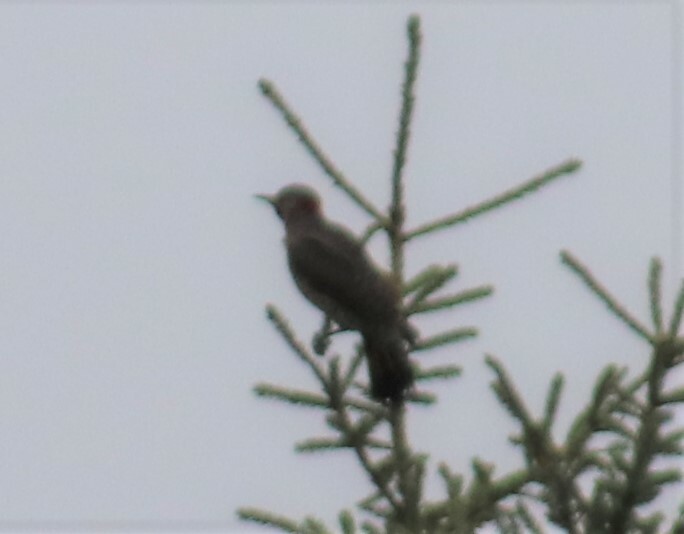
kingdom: Animalia
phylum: Chordata
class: Aves
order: Piciformes
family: Picidae
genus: Colaptes
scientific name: Colaptes auratus
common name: Northern flicker
